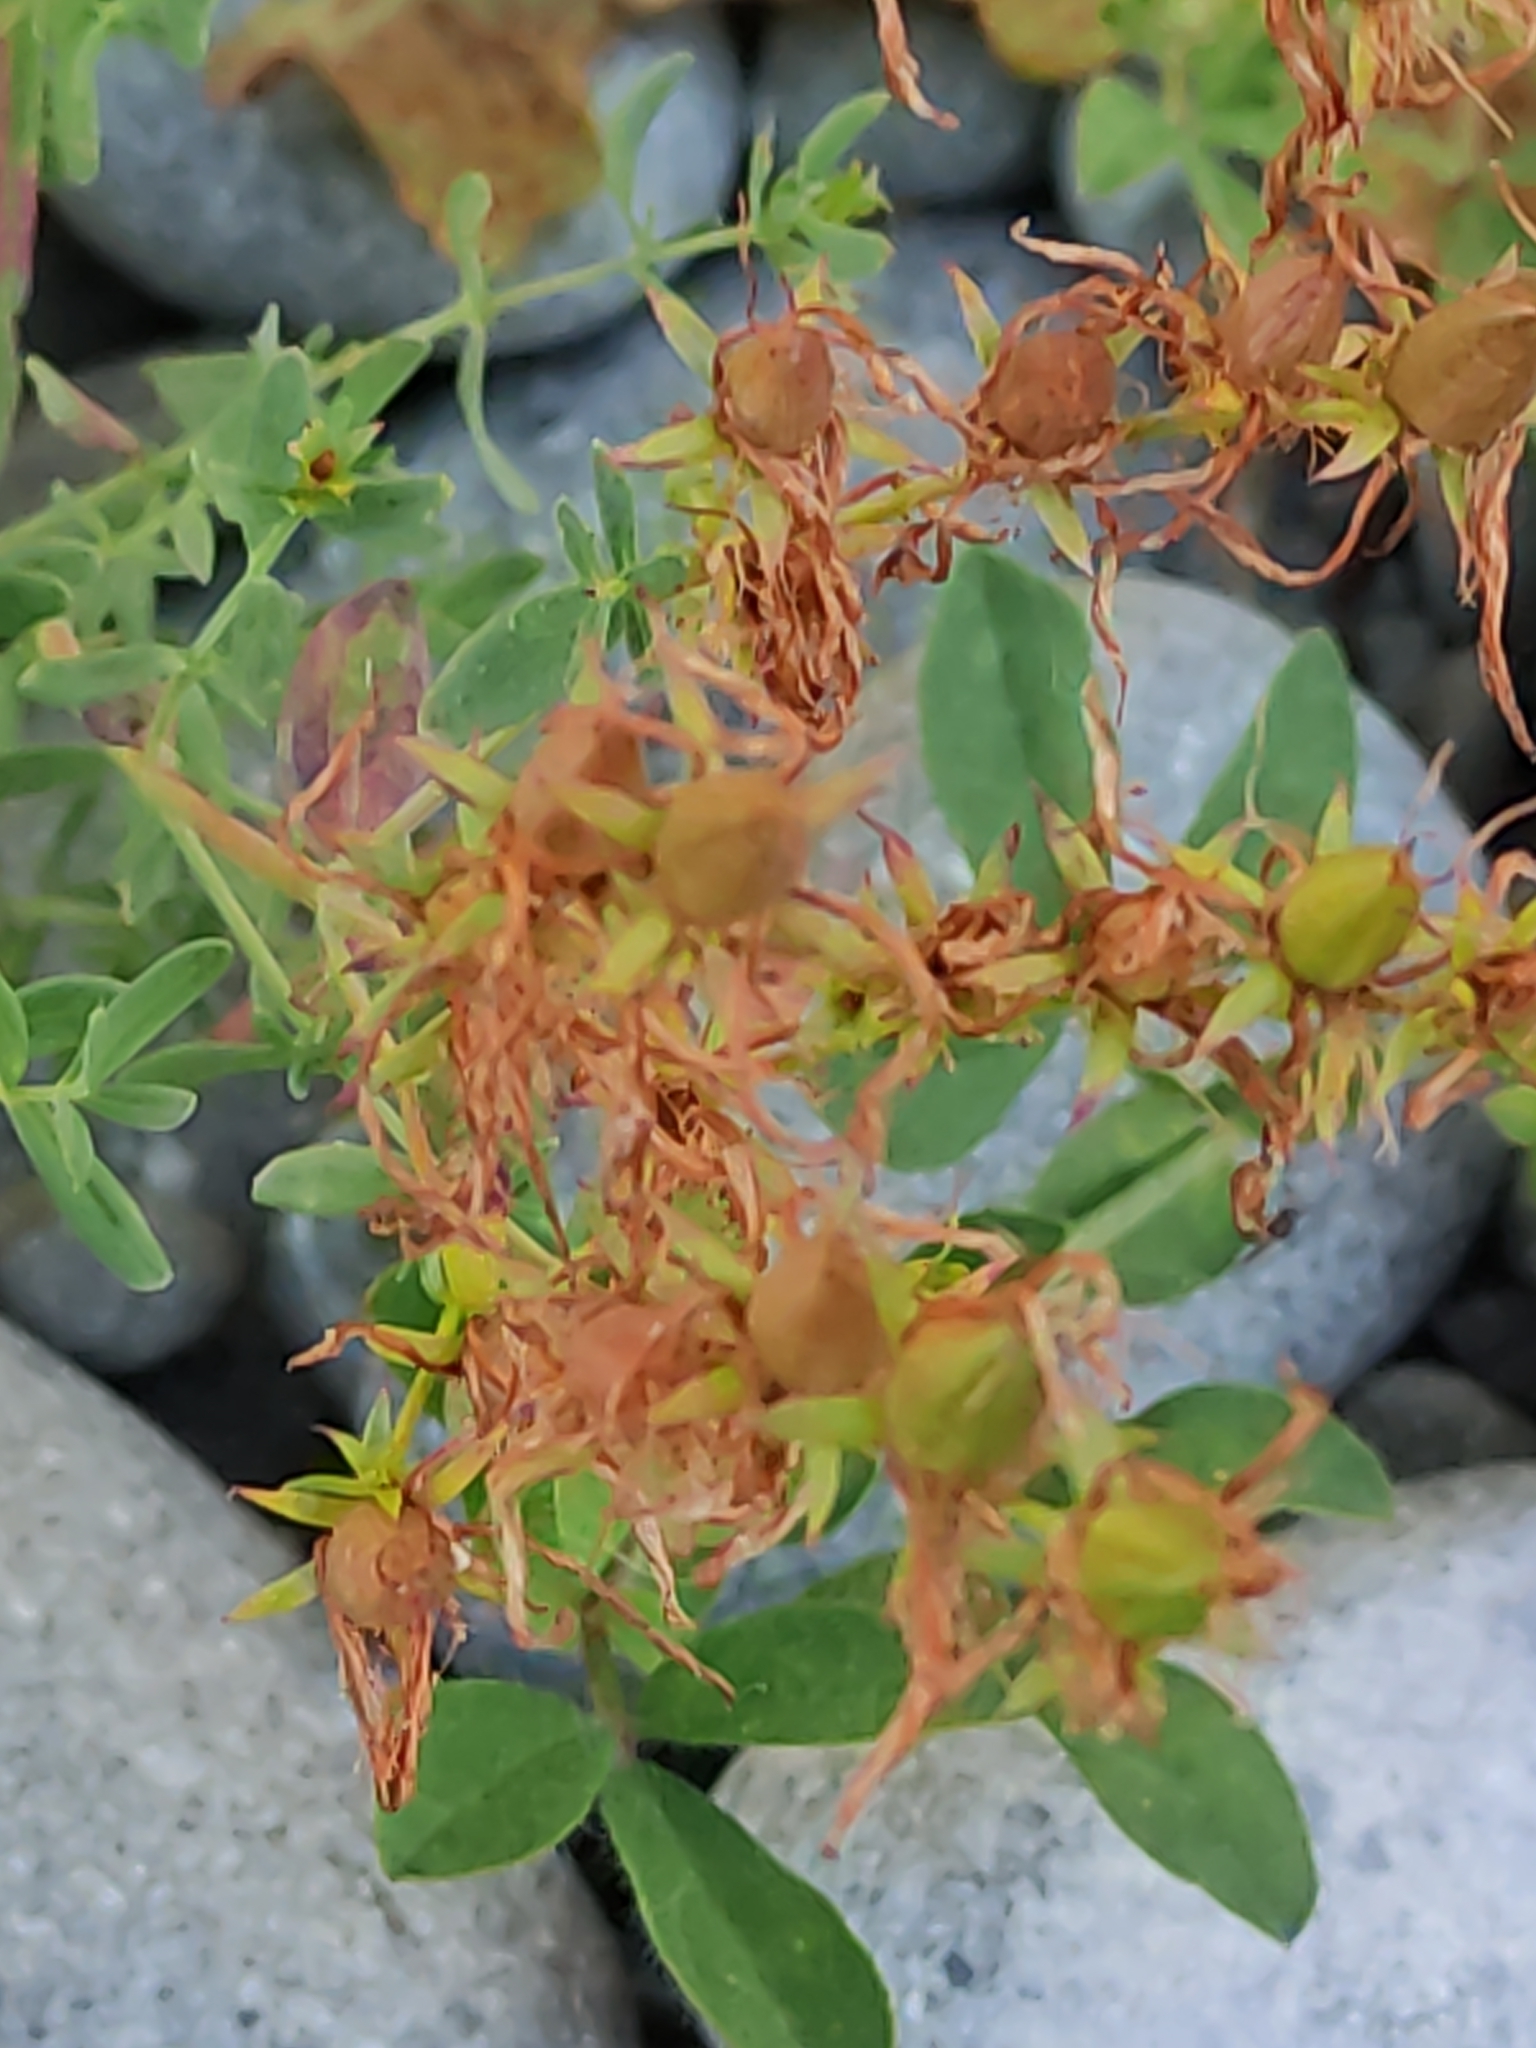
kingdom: Plantae
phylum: Tracheophyta
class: Magnoliopsida
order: Malpighiales
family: Hypericaceae
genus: Hypericum
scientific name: Hypericum perforatum
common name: Common st. johnswort
